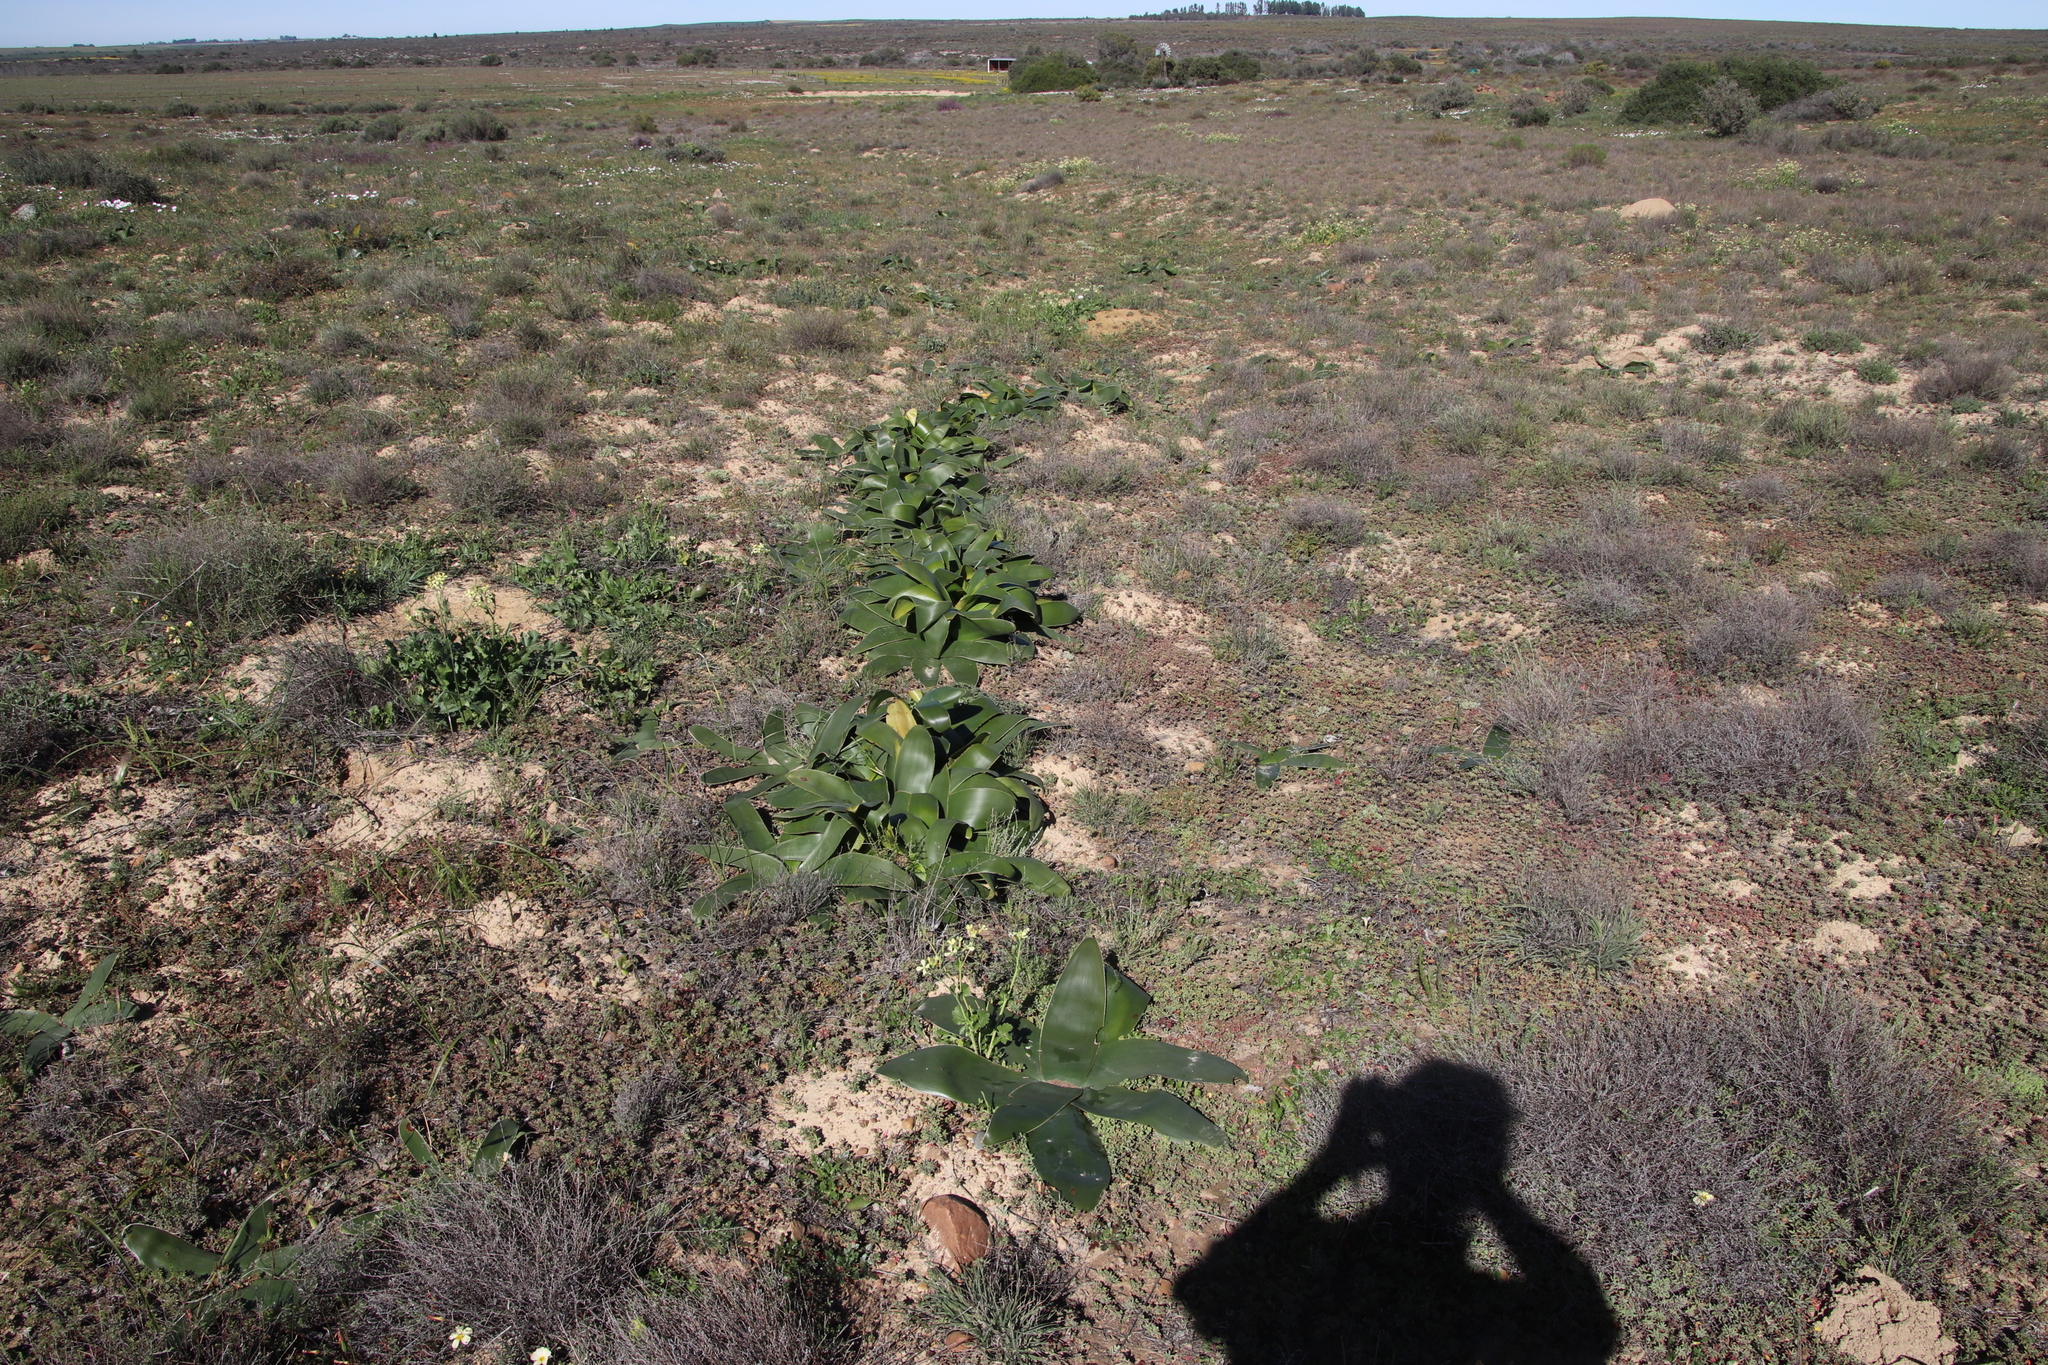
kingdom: Plantae
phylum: Tracheophyta
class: Liliopsida
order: Asparagales
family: Amaryllidaceae
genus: Crossyne
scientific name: Crossyne flava
